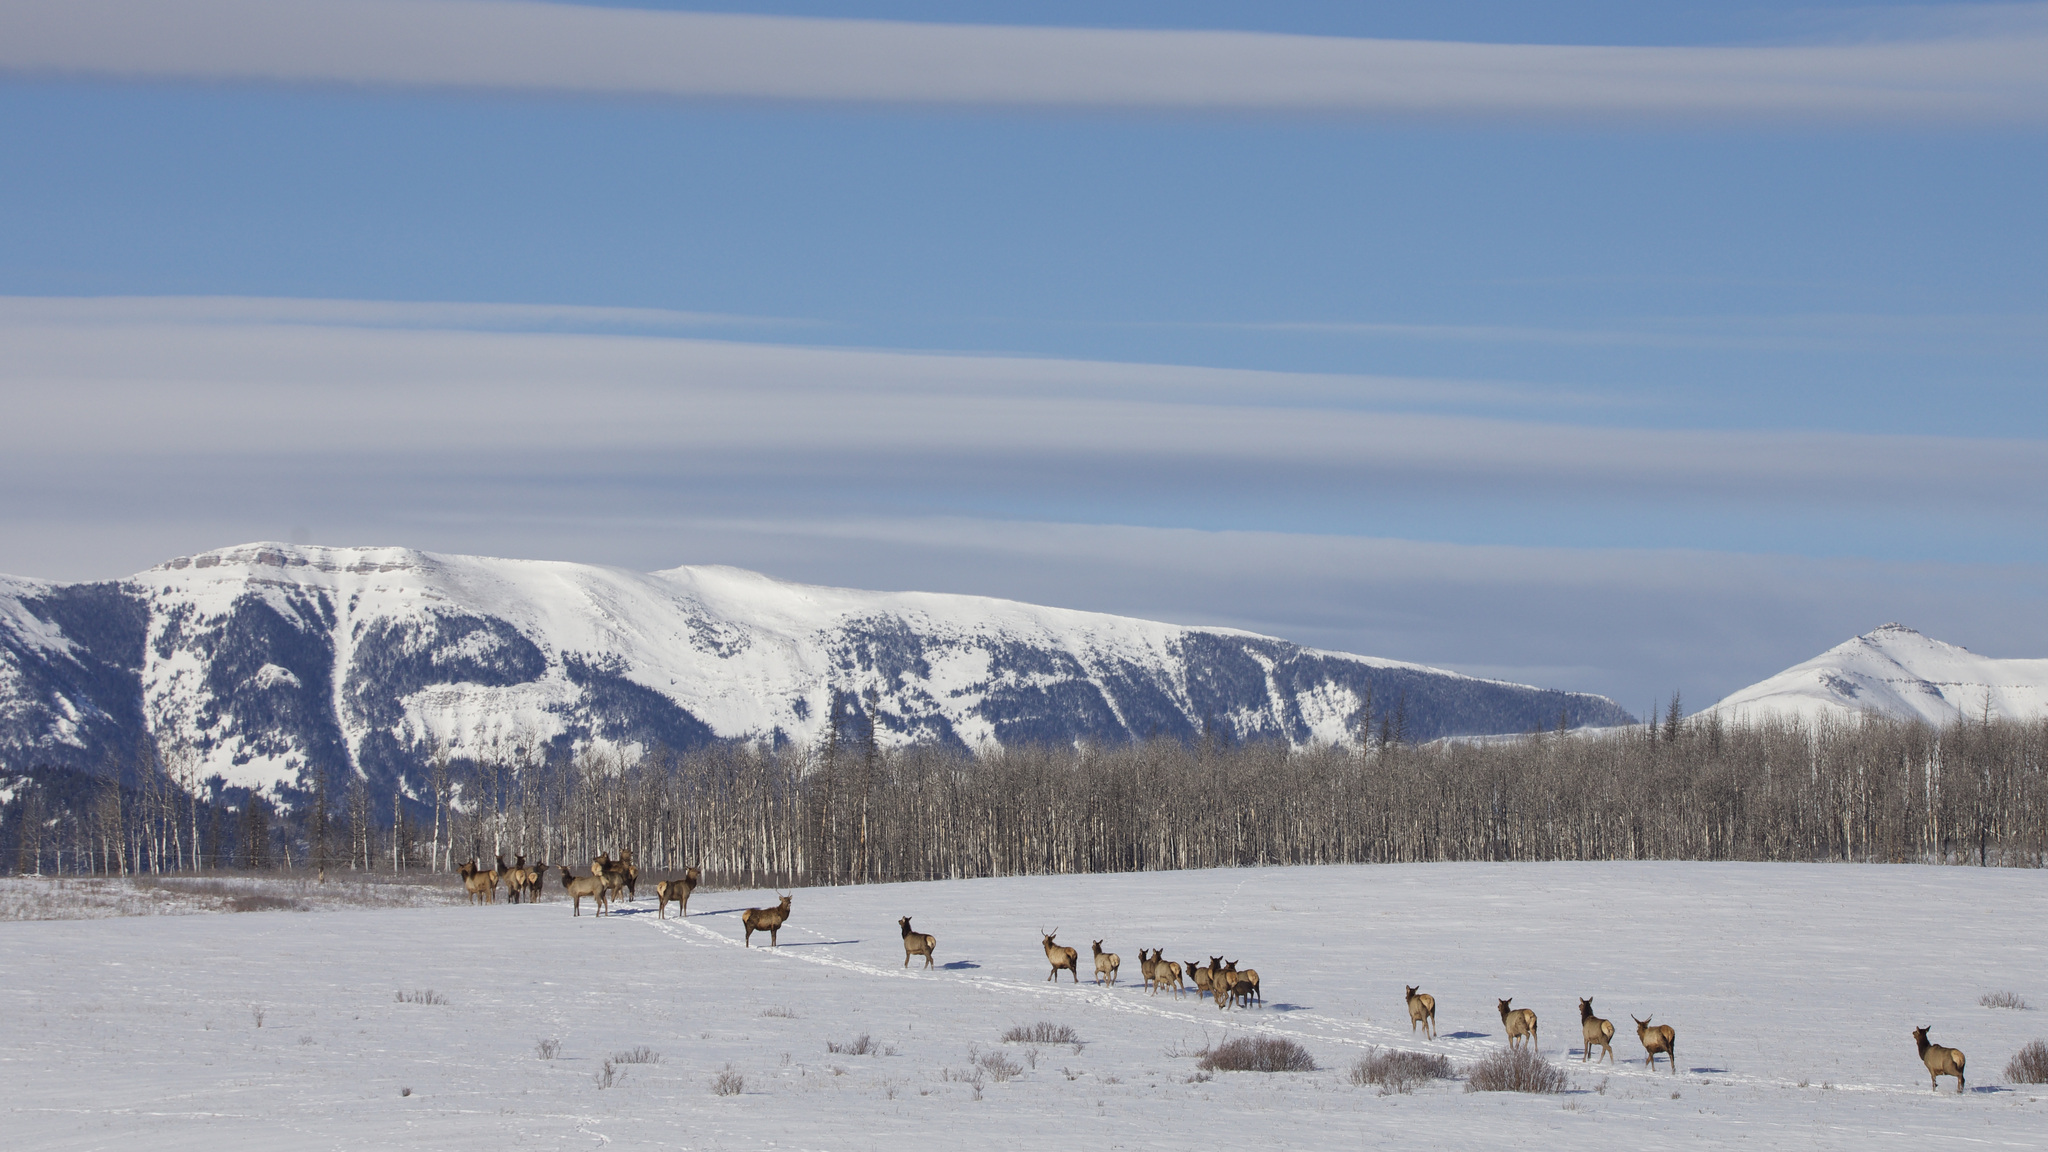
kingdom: Animalia
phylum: Chordata
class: Mammalia
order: Artiodactyla
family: Cervidae
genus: Cervus
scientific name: Cervus elaphus
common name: Red deer
